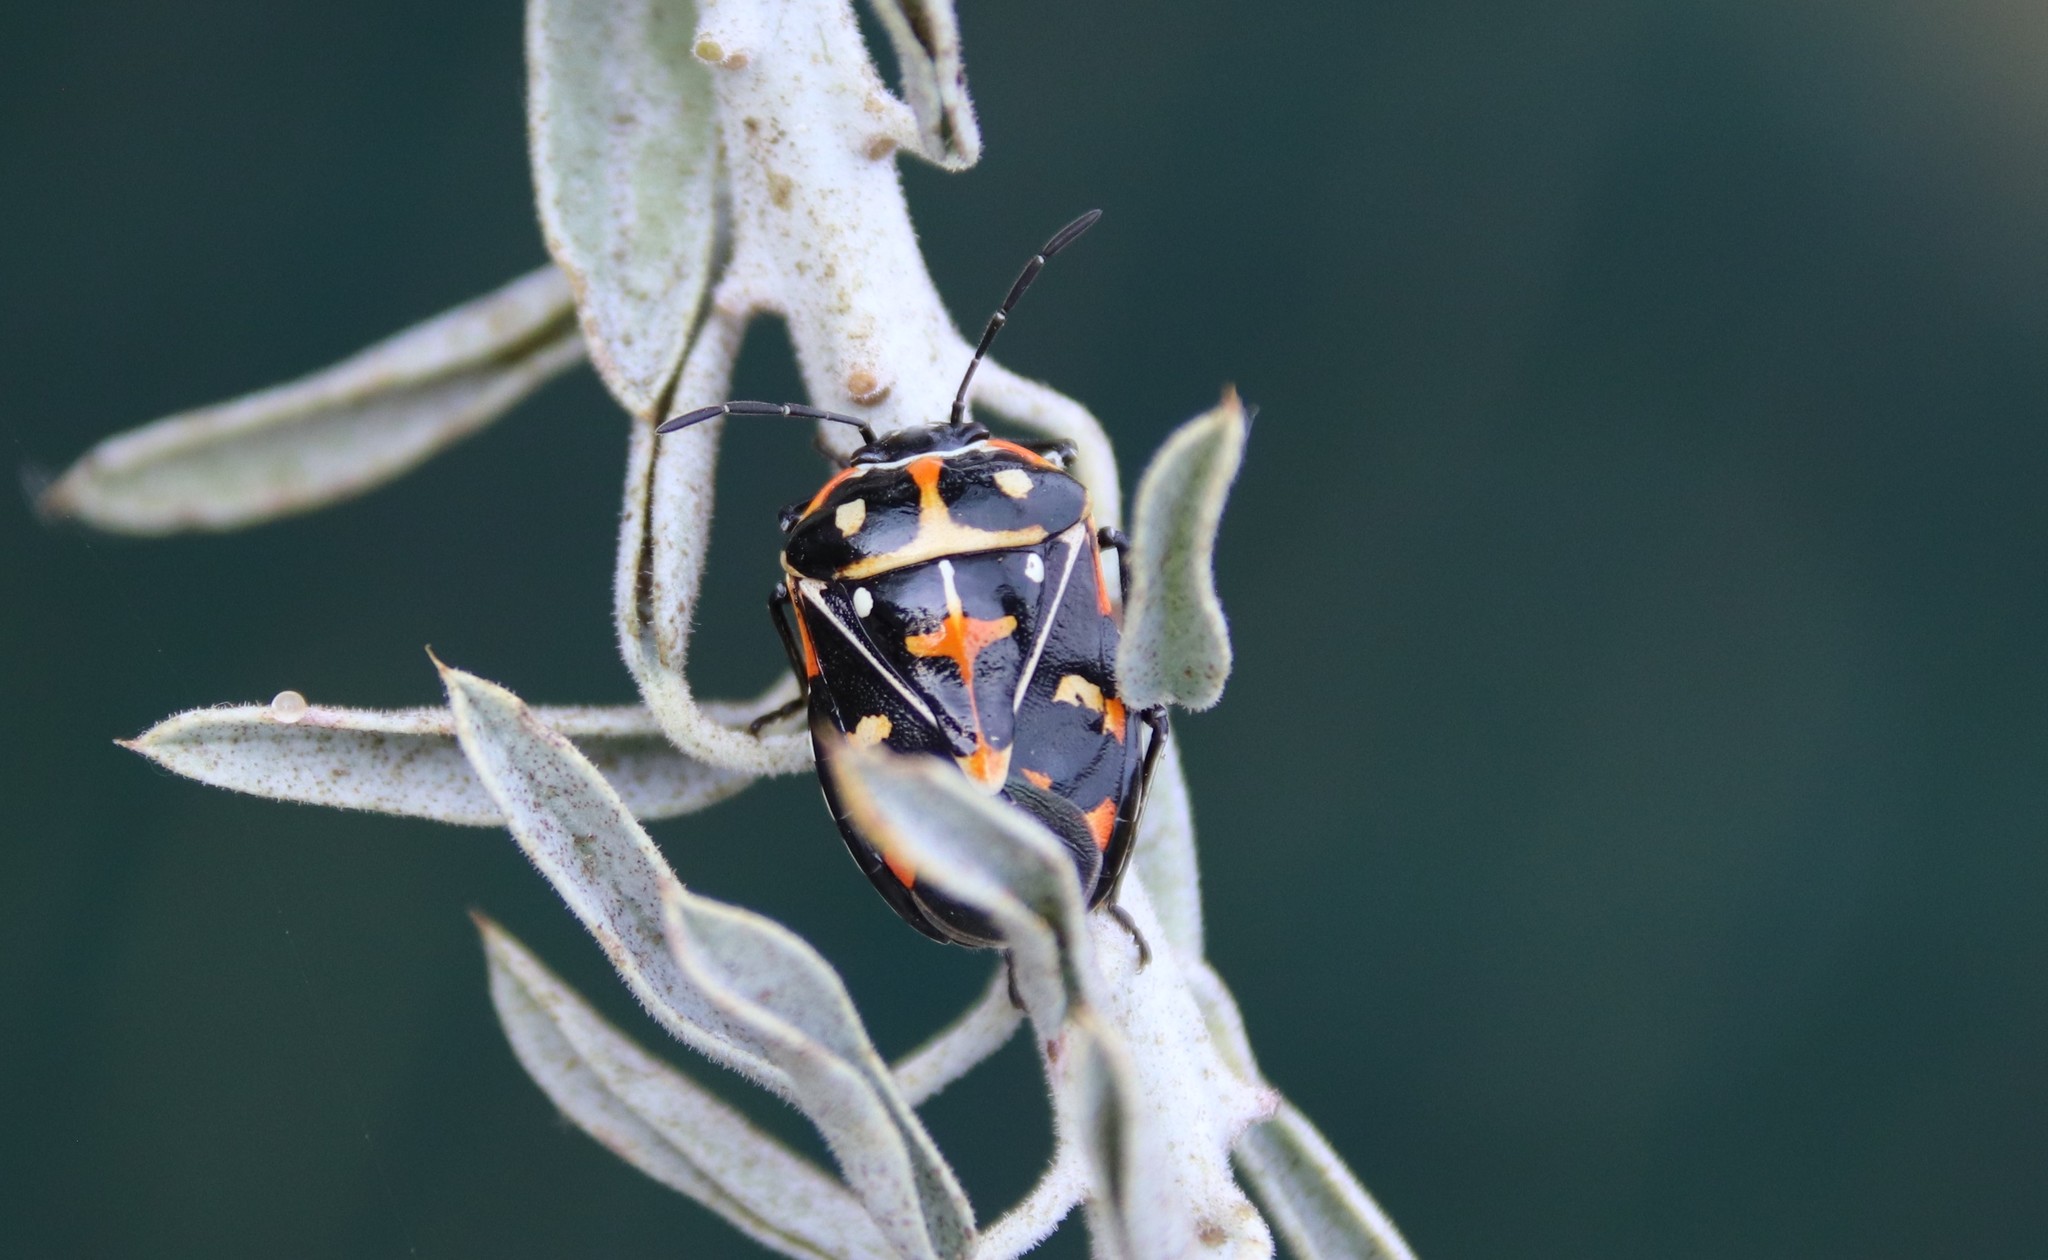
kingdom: Animalia
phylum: Arthropoda
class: Insecta
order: Hemiptera
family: Pentatomidae
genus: Murgantia
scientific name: Murgantia histrionica
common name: Harlequin bug
